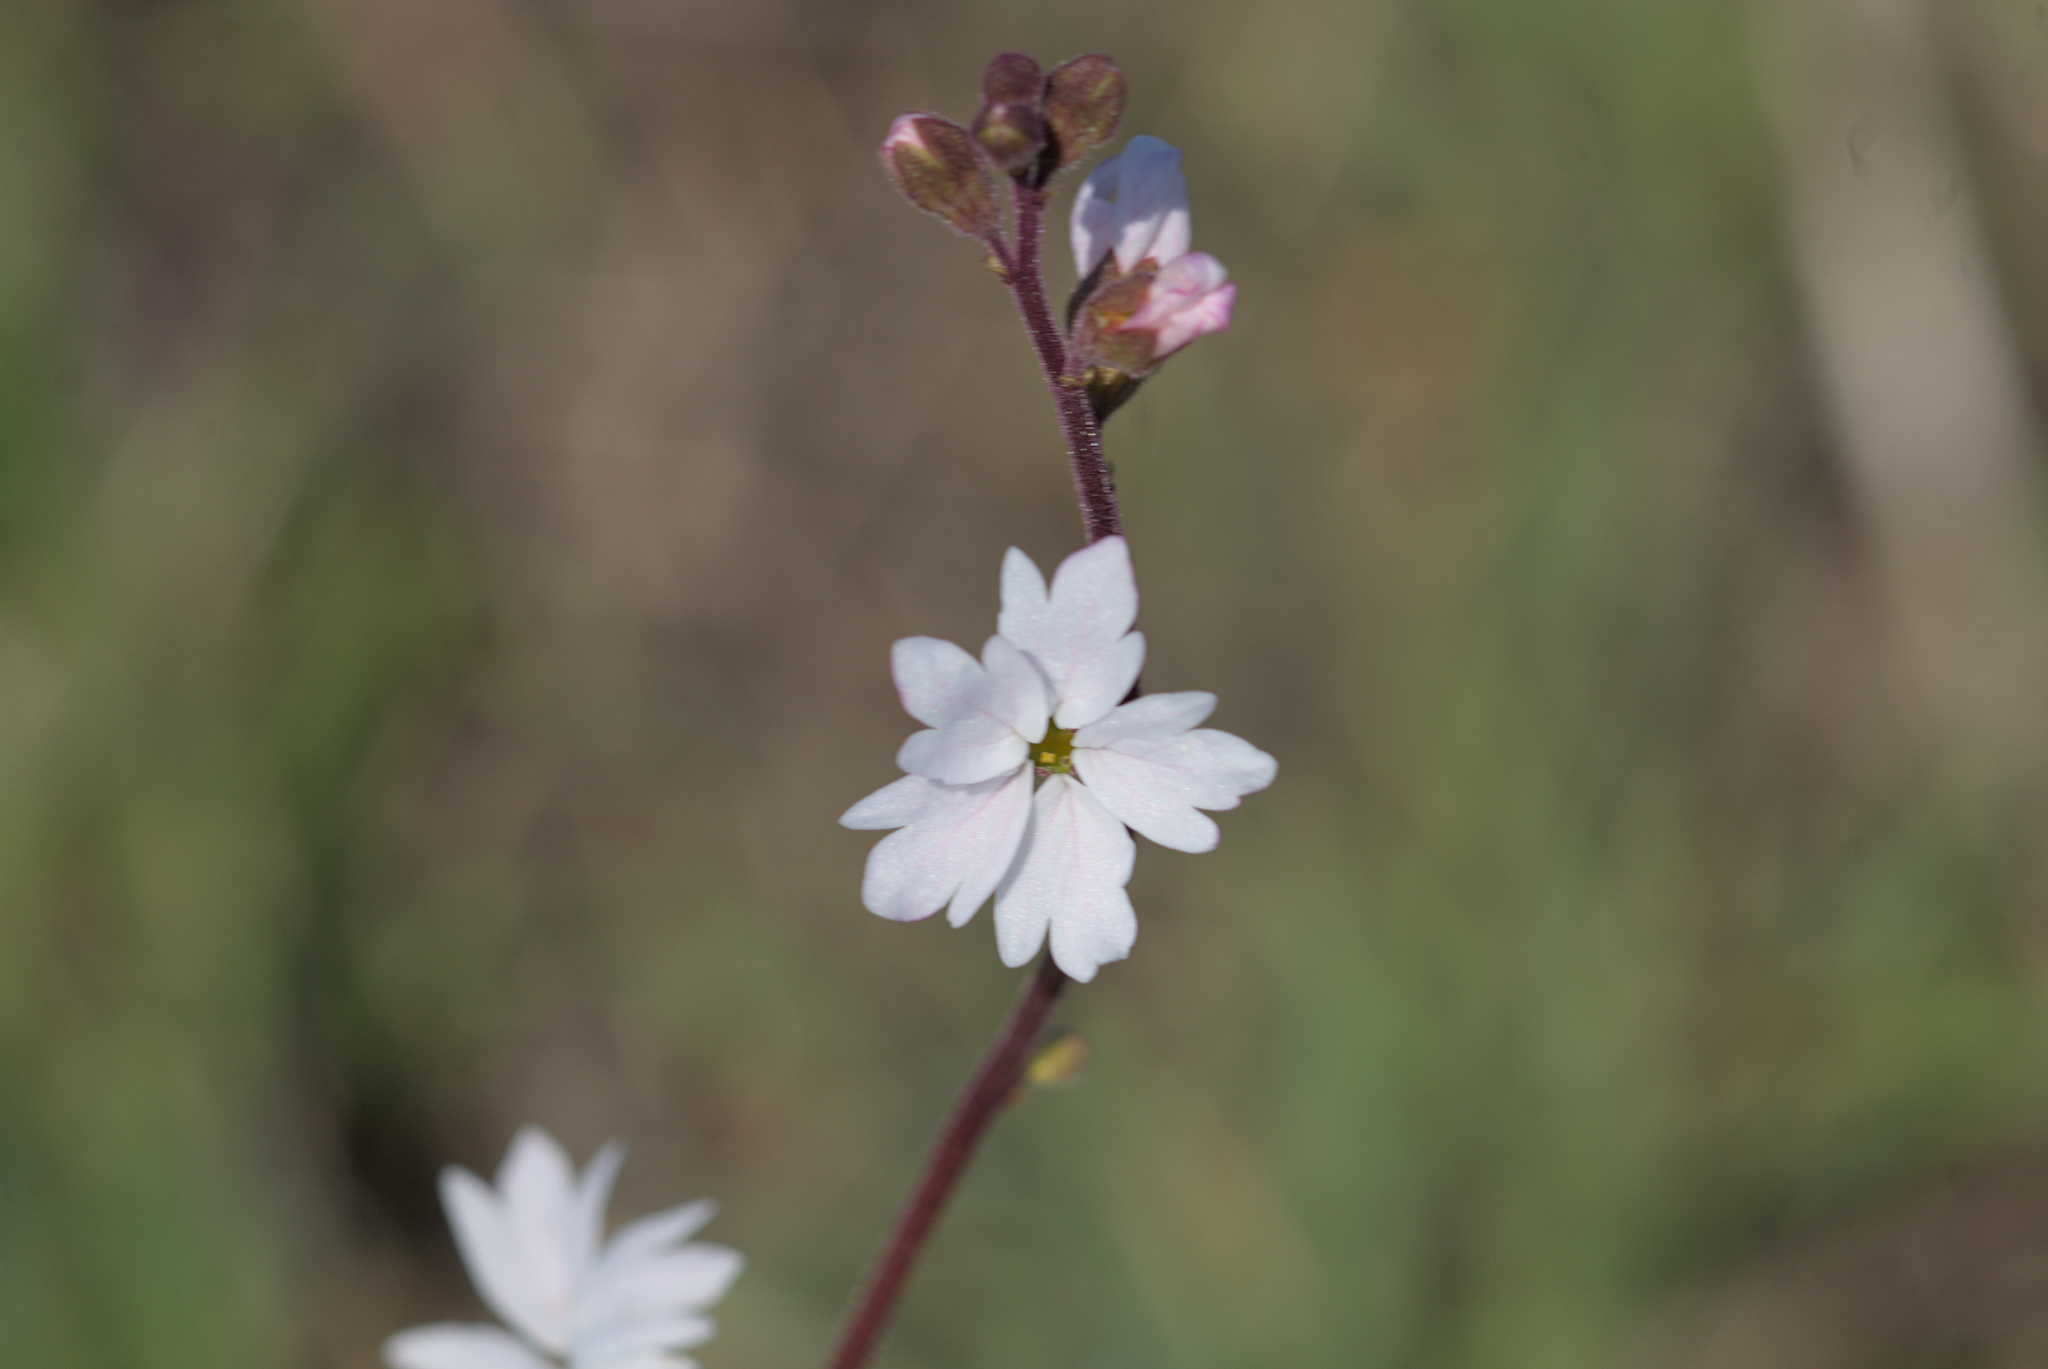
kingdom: Plantae
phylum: Tracheophyta
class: Magnoliopsida
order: Saxifragales
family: Saxifragaceae
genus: Lithophragma
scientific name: Lithophragma affine
